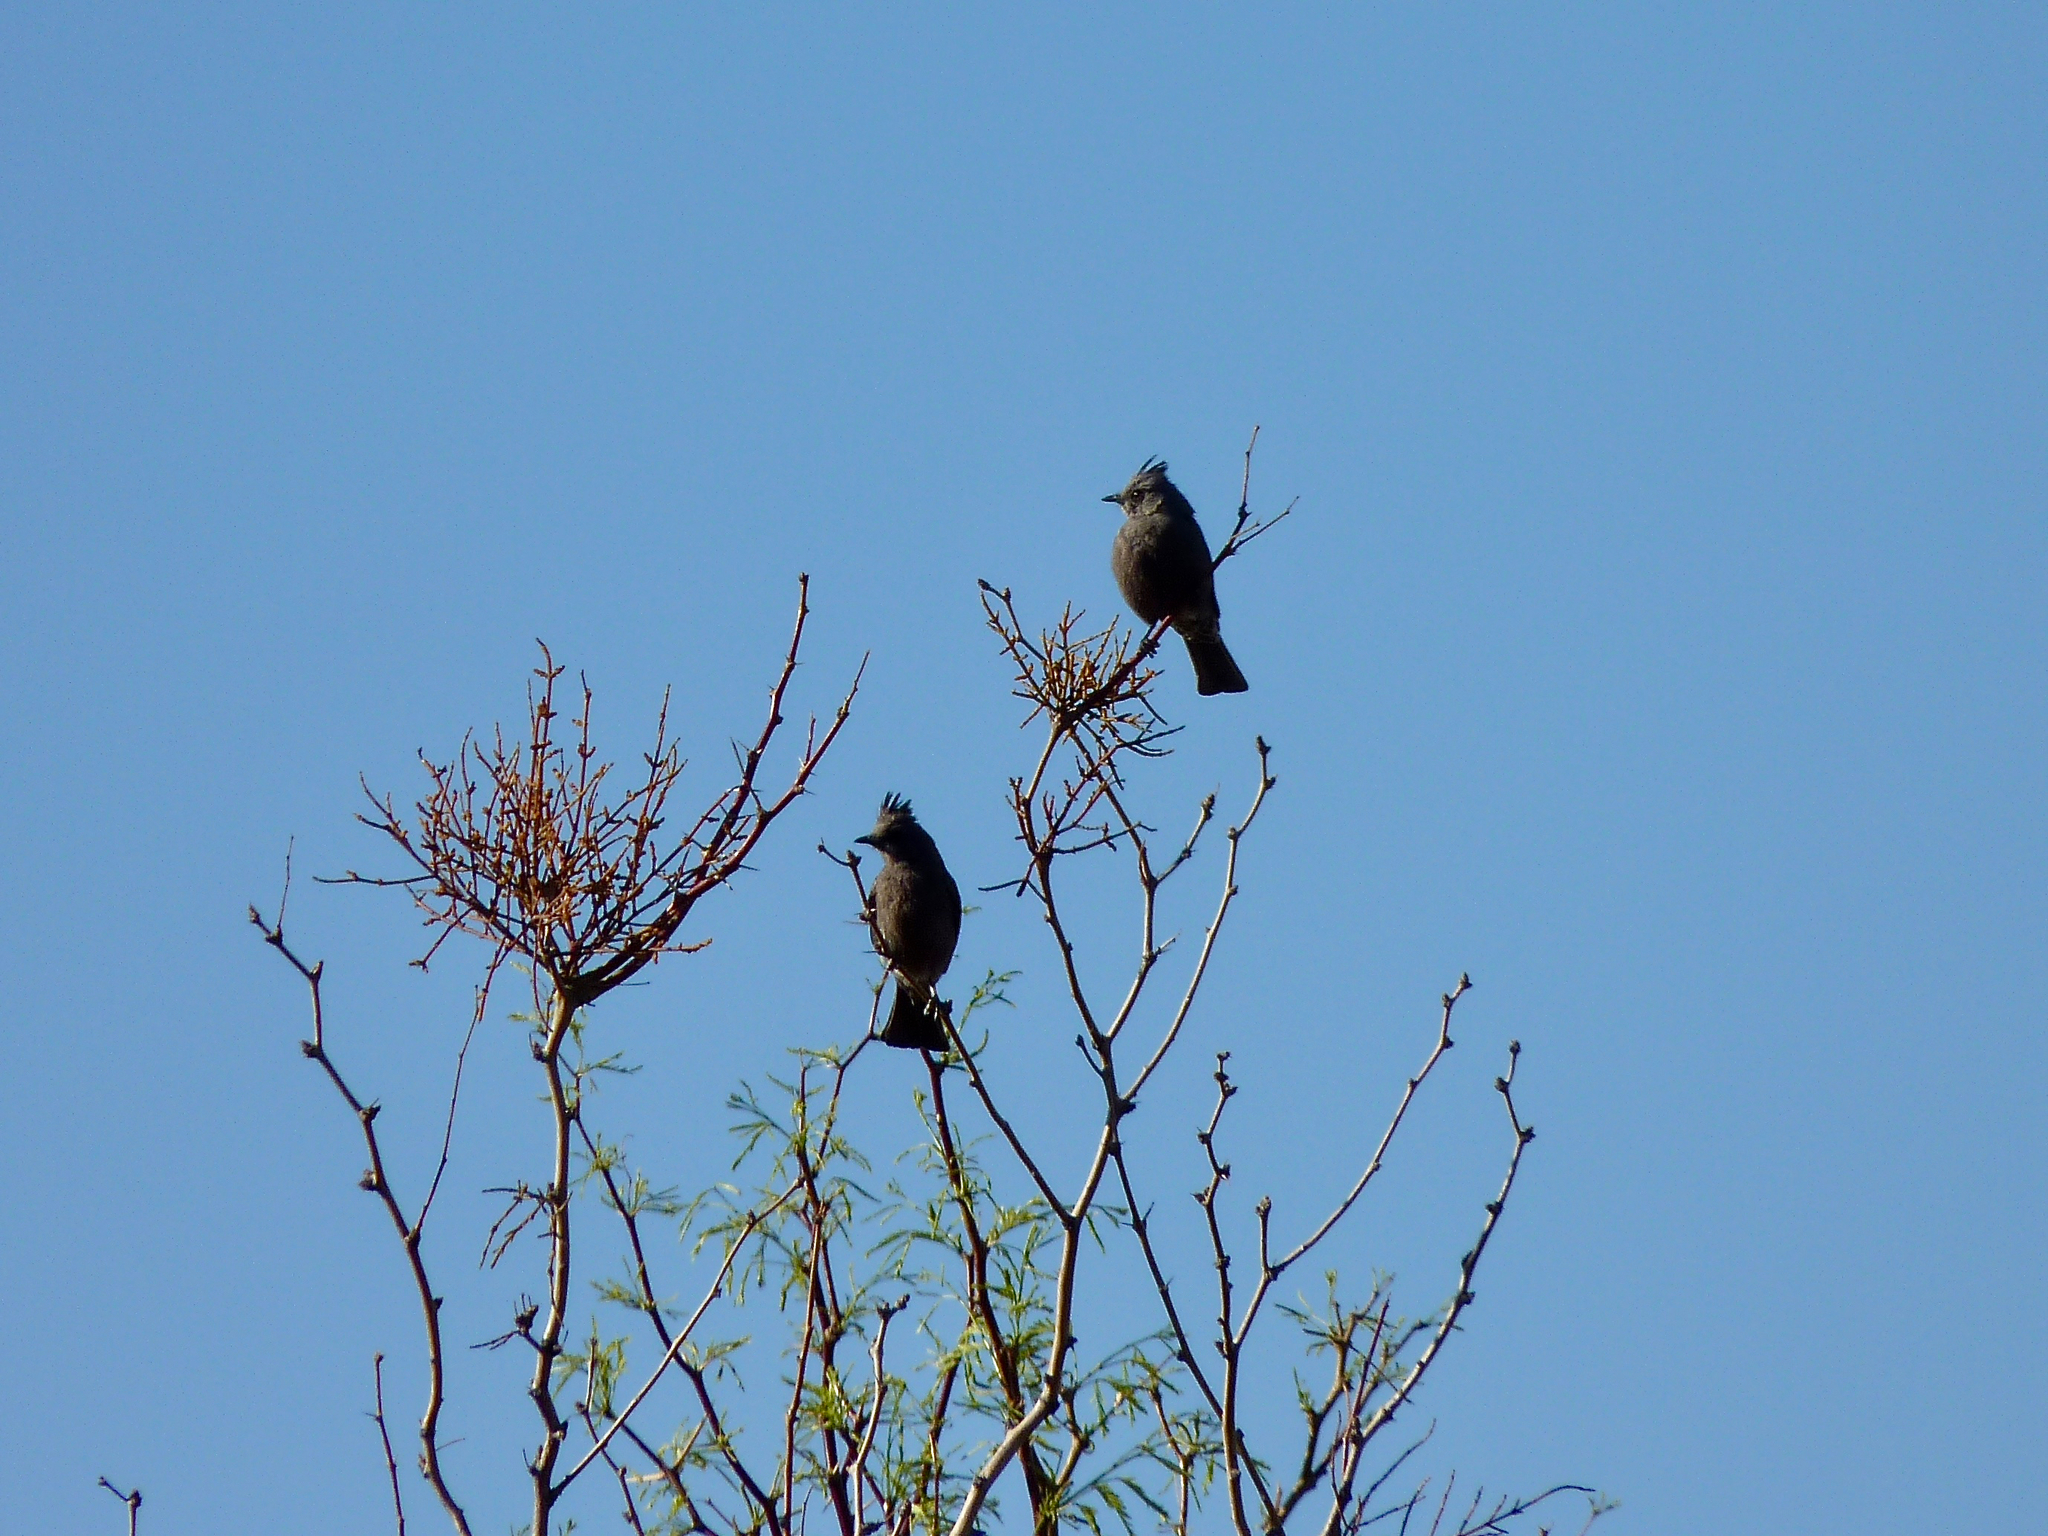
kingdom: Animalia
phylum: Chordata
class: Aves
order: Passeriformes
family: Ptilogonatidae
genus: Phainopepla
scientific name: Phainopepla nitens
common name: Phainopepla
